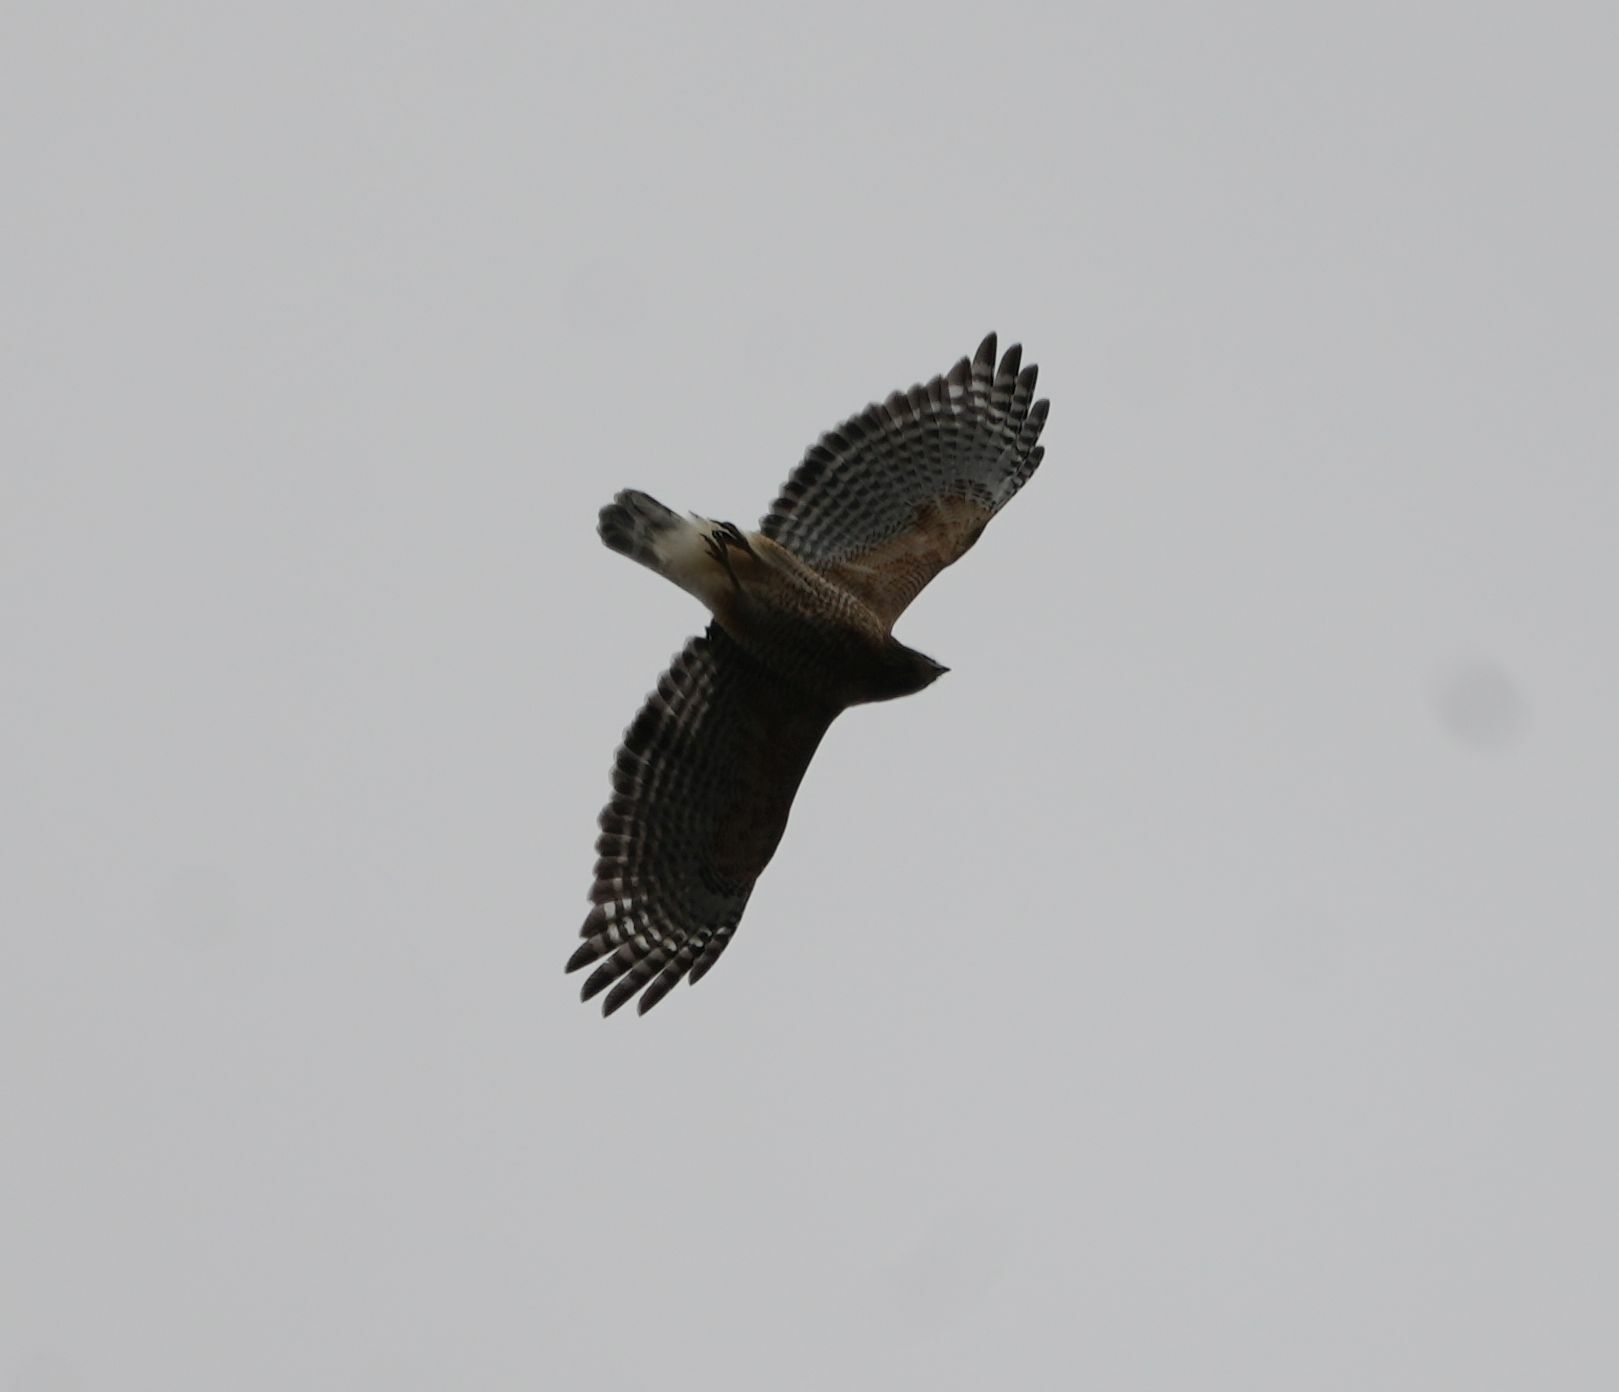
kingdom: Animalia
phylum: Chordata
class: Aves
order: Accipitriformes
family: Accipitridae
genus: Buteo
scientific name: Buteo lineatus
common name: Red-shouldered hawk
